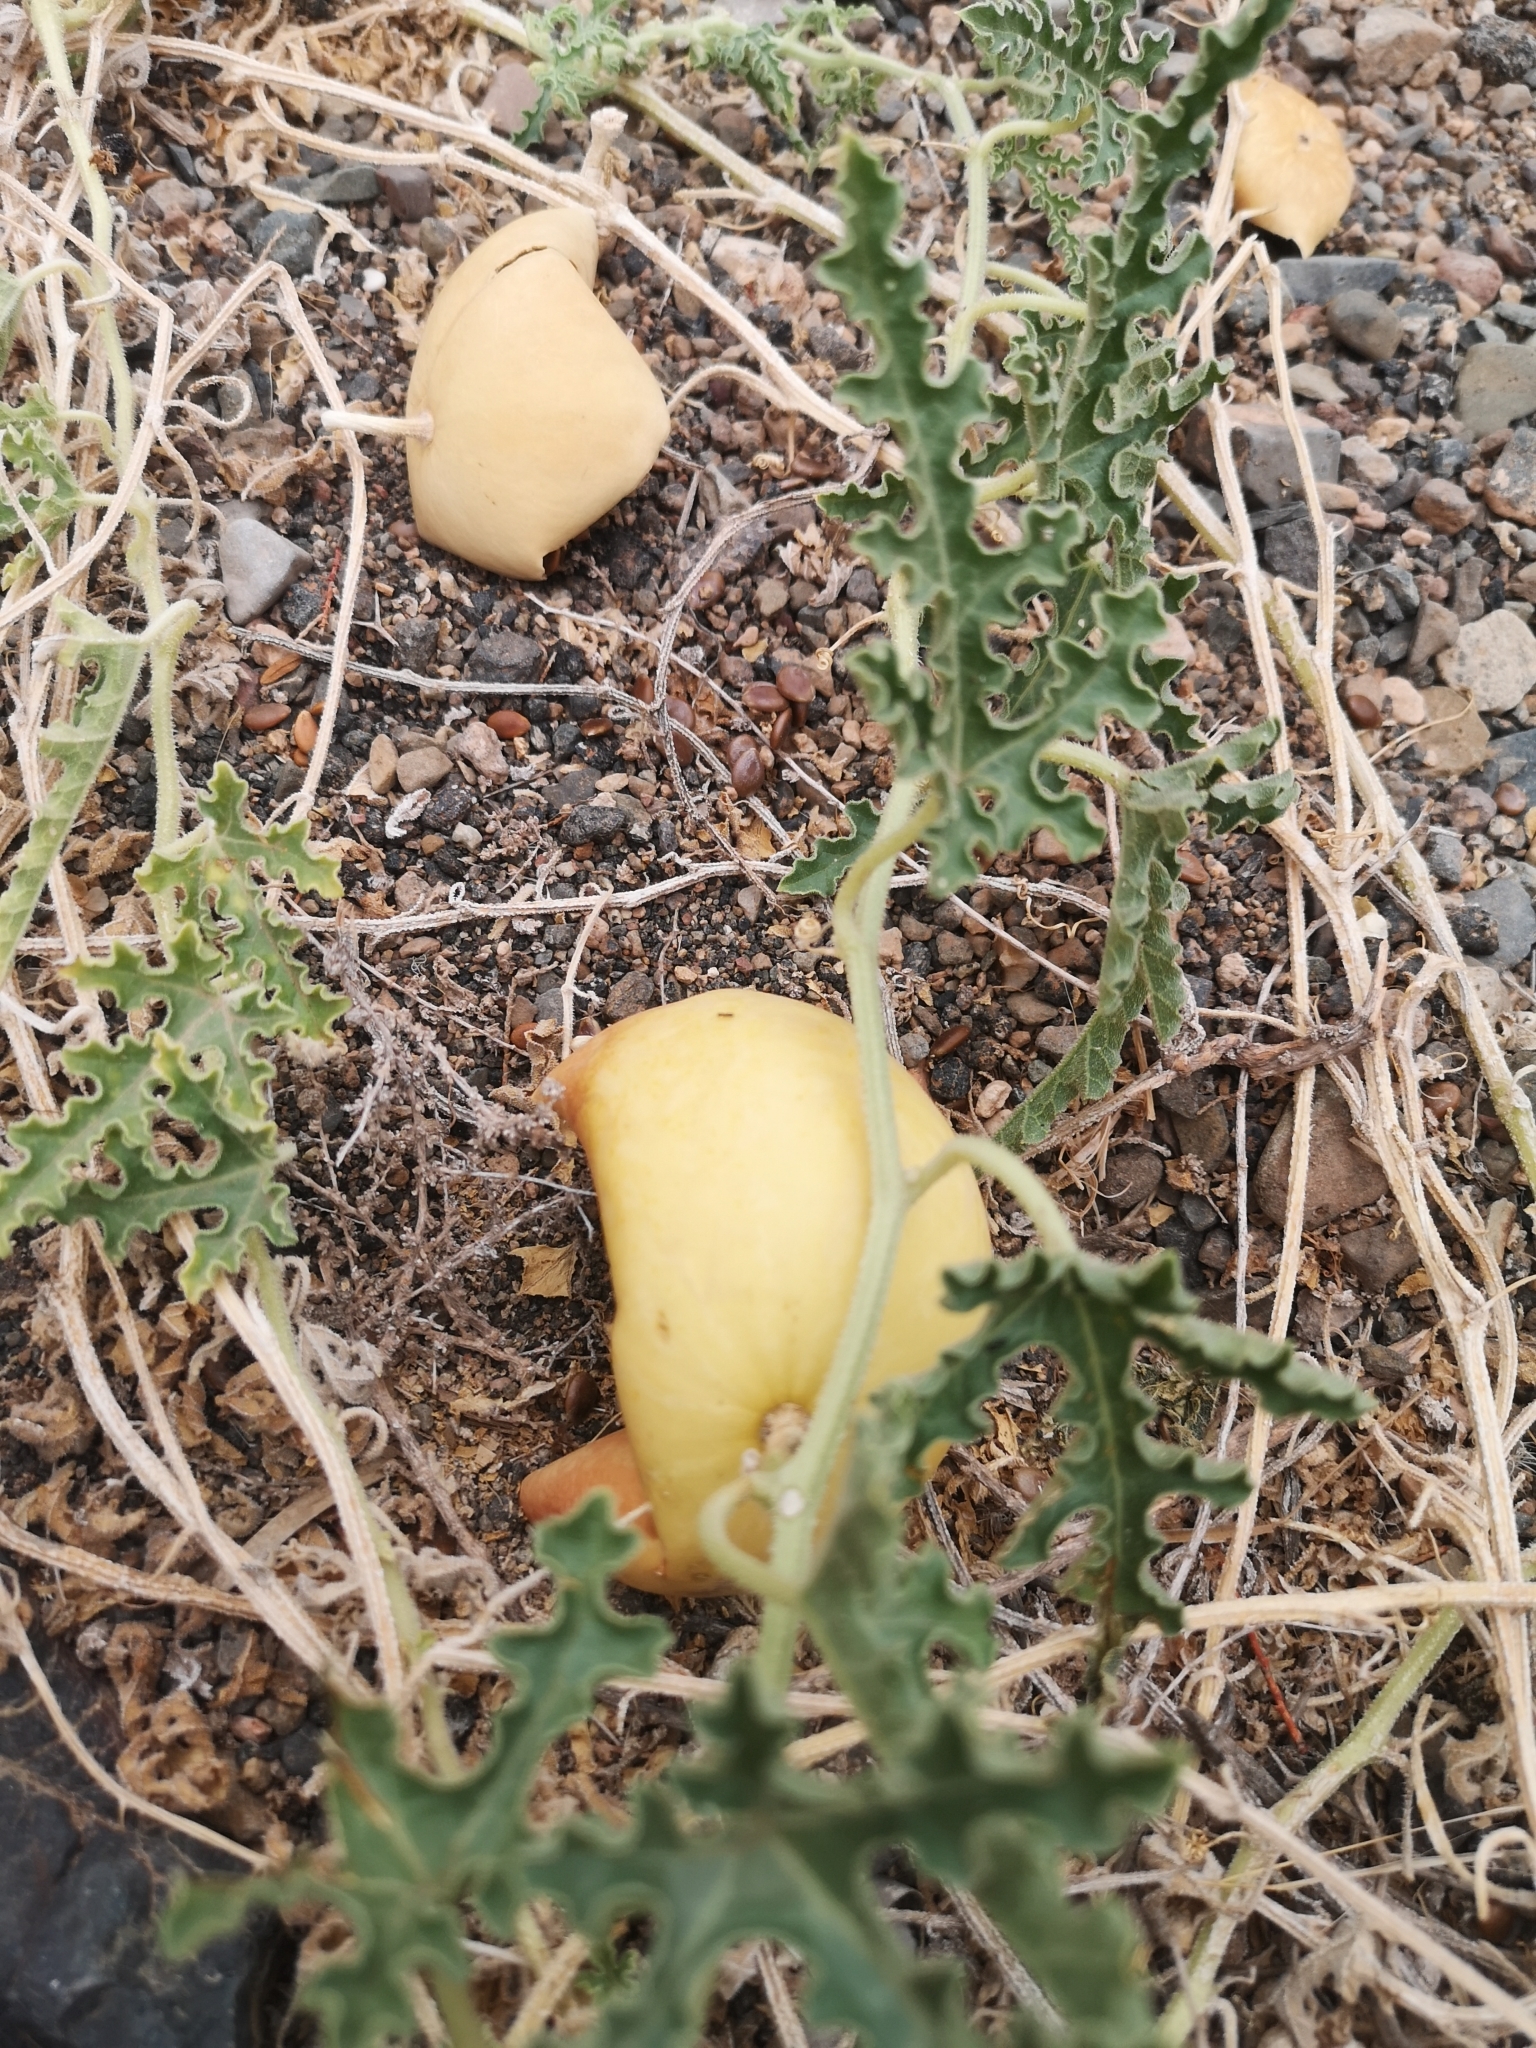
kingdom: Plantae
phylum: Tracheophyta
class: Magnoliopsida
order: Cucurbitales
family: Cucurbitaceae
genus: Citrullus
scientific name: Citrullus colocynthis
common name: Colocynth
